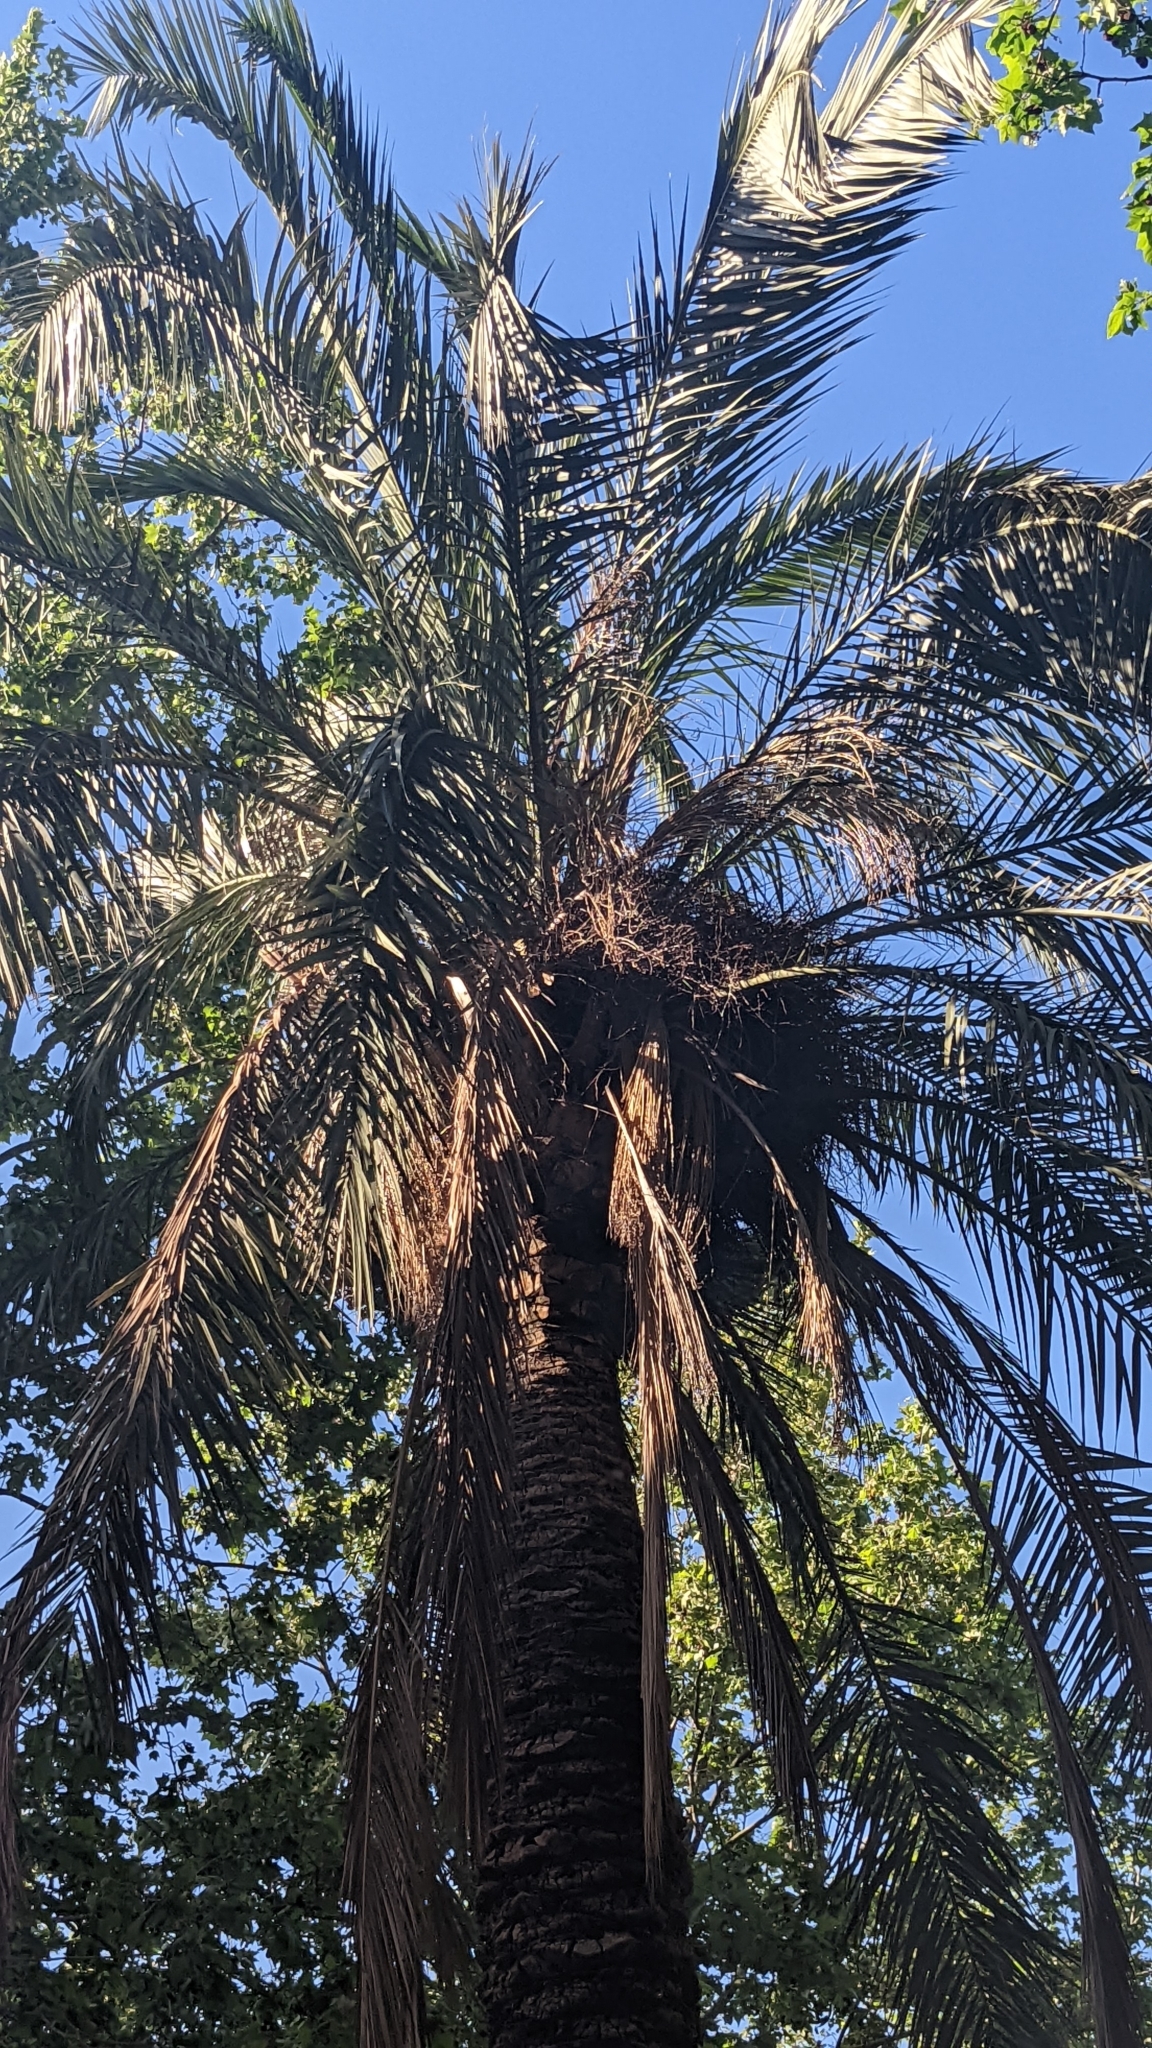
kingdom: Animalia
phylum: Chordata
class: Aves
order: Psittaciformes
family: Psittacidae
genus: Myiopsitta
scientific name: Myiopsitta monachus
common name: Monk parakeet
